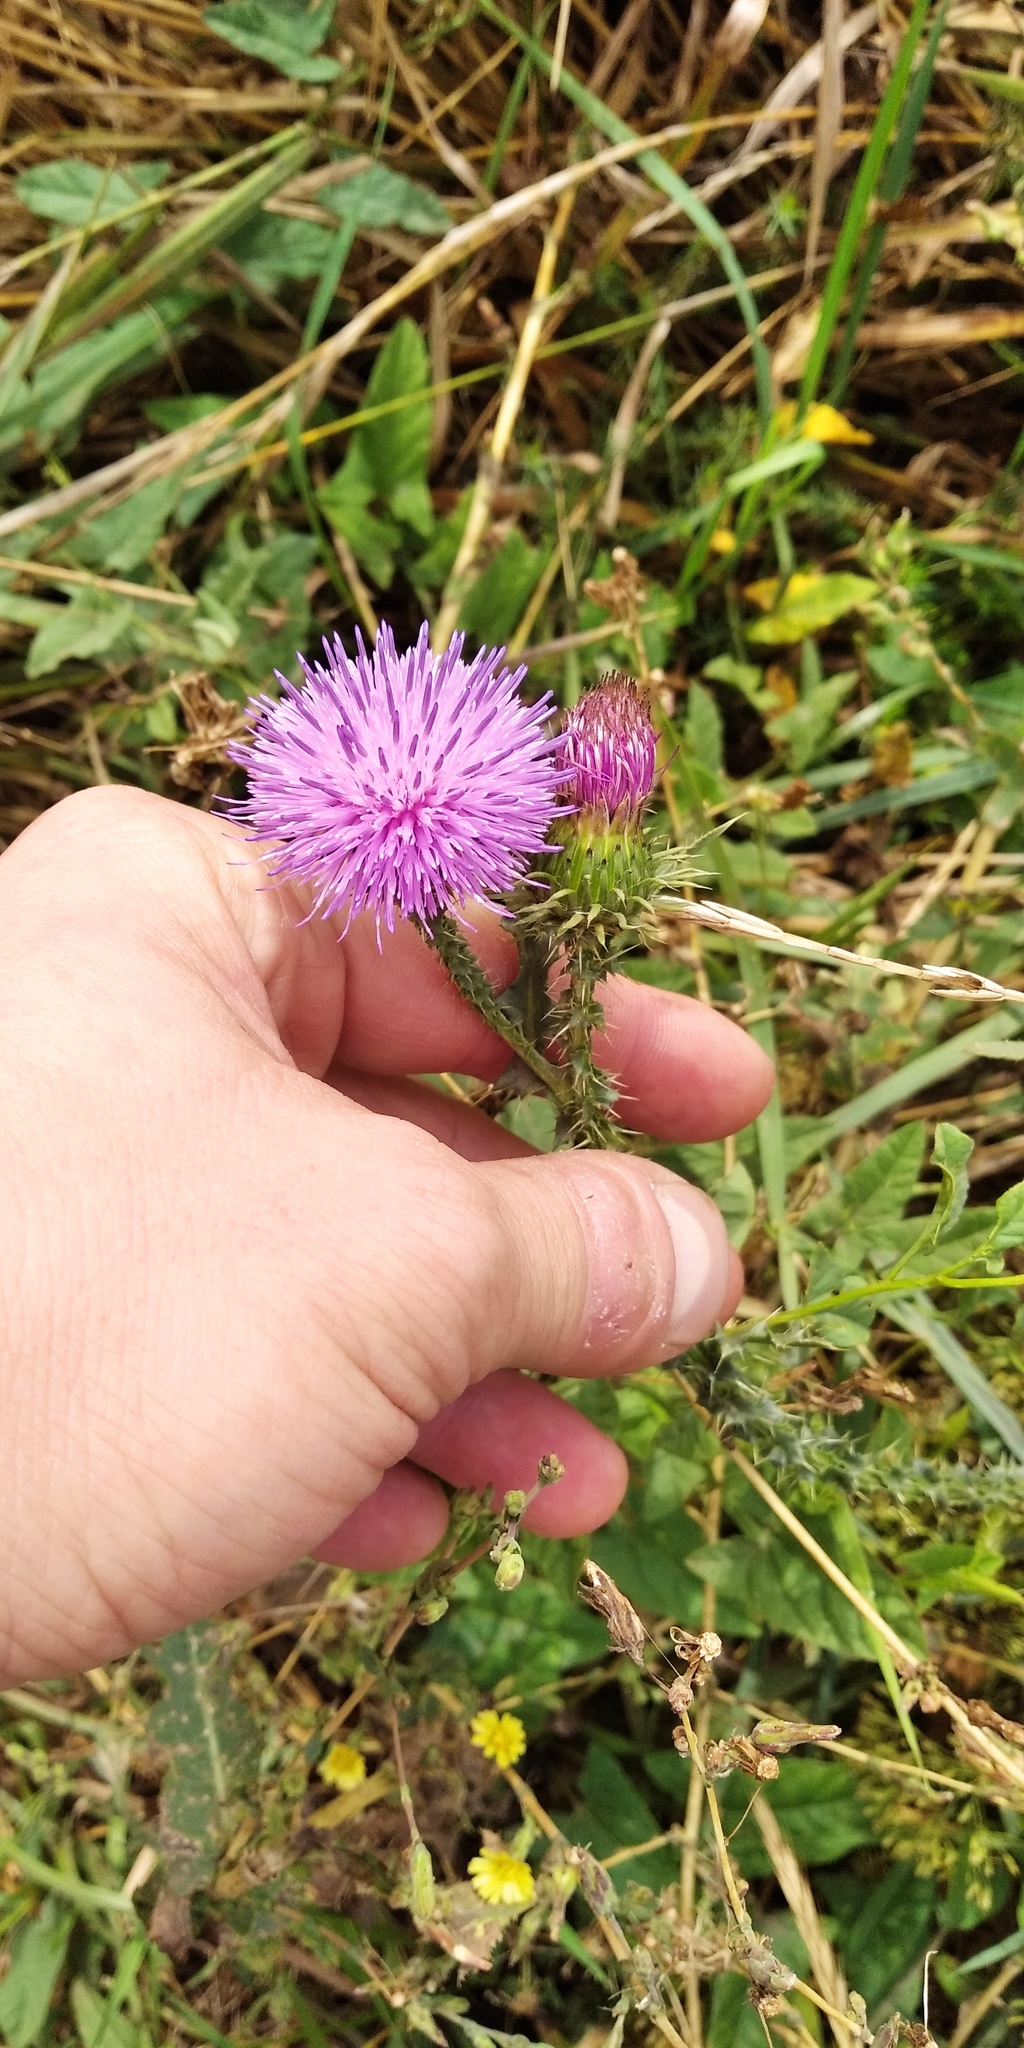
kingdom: Plantae
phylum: Tracheophyta
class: Magnoliopsida
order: Asterales
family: Asteraceae
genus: Carduus
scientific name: Carduus acanthoides
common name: Plumeless thistle
